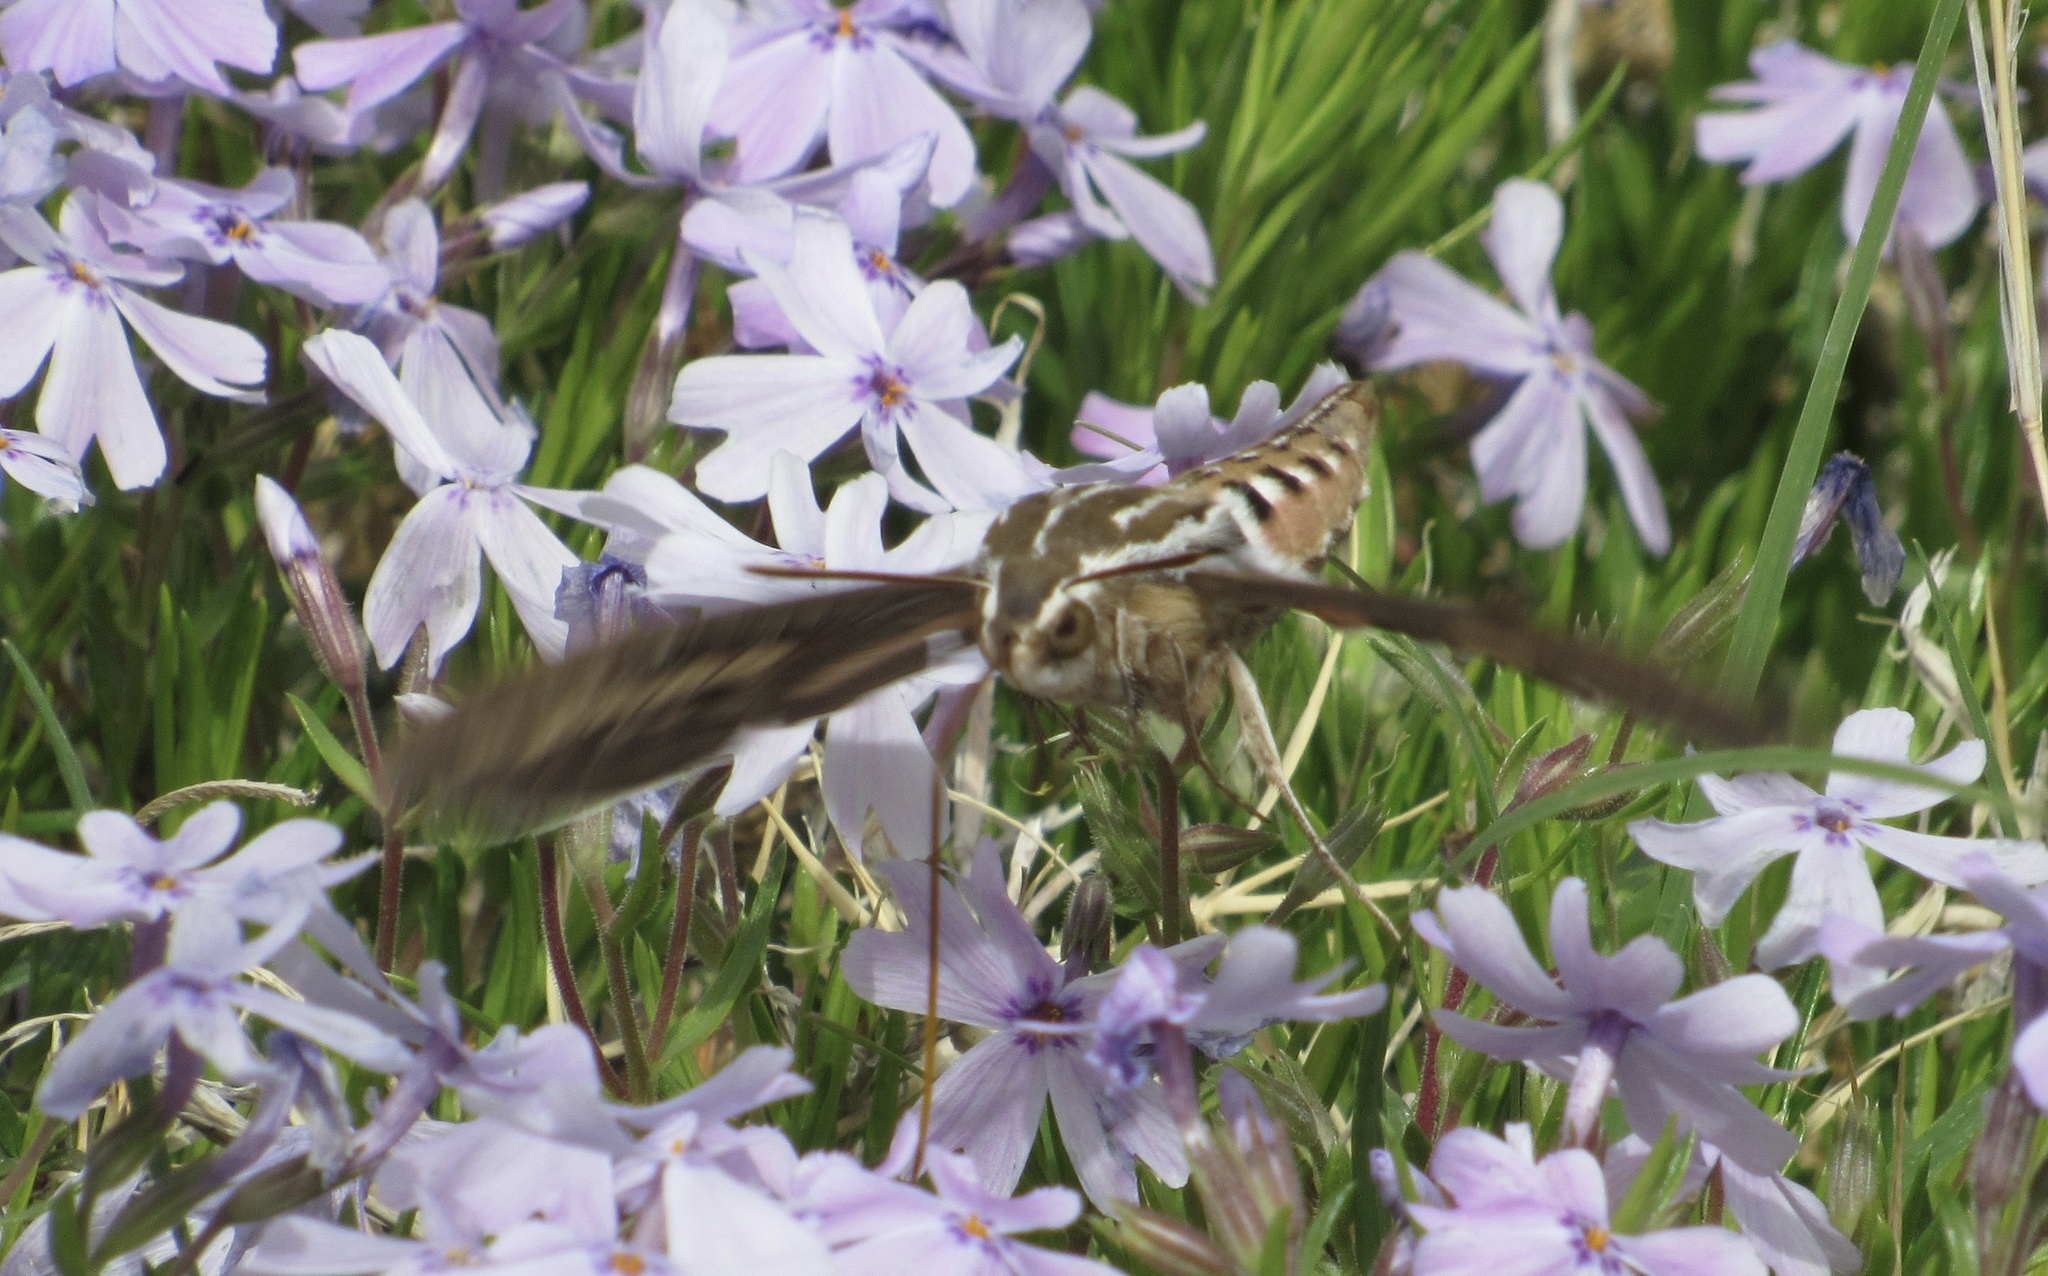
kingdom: Animalia
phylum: Arthropoda
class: Insecta
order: Lepidoptera
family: Sphingidae
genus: Hyles
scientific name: Hyles lineata
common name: White-lined sphinx
